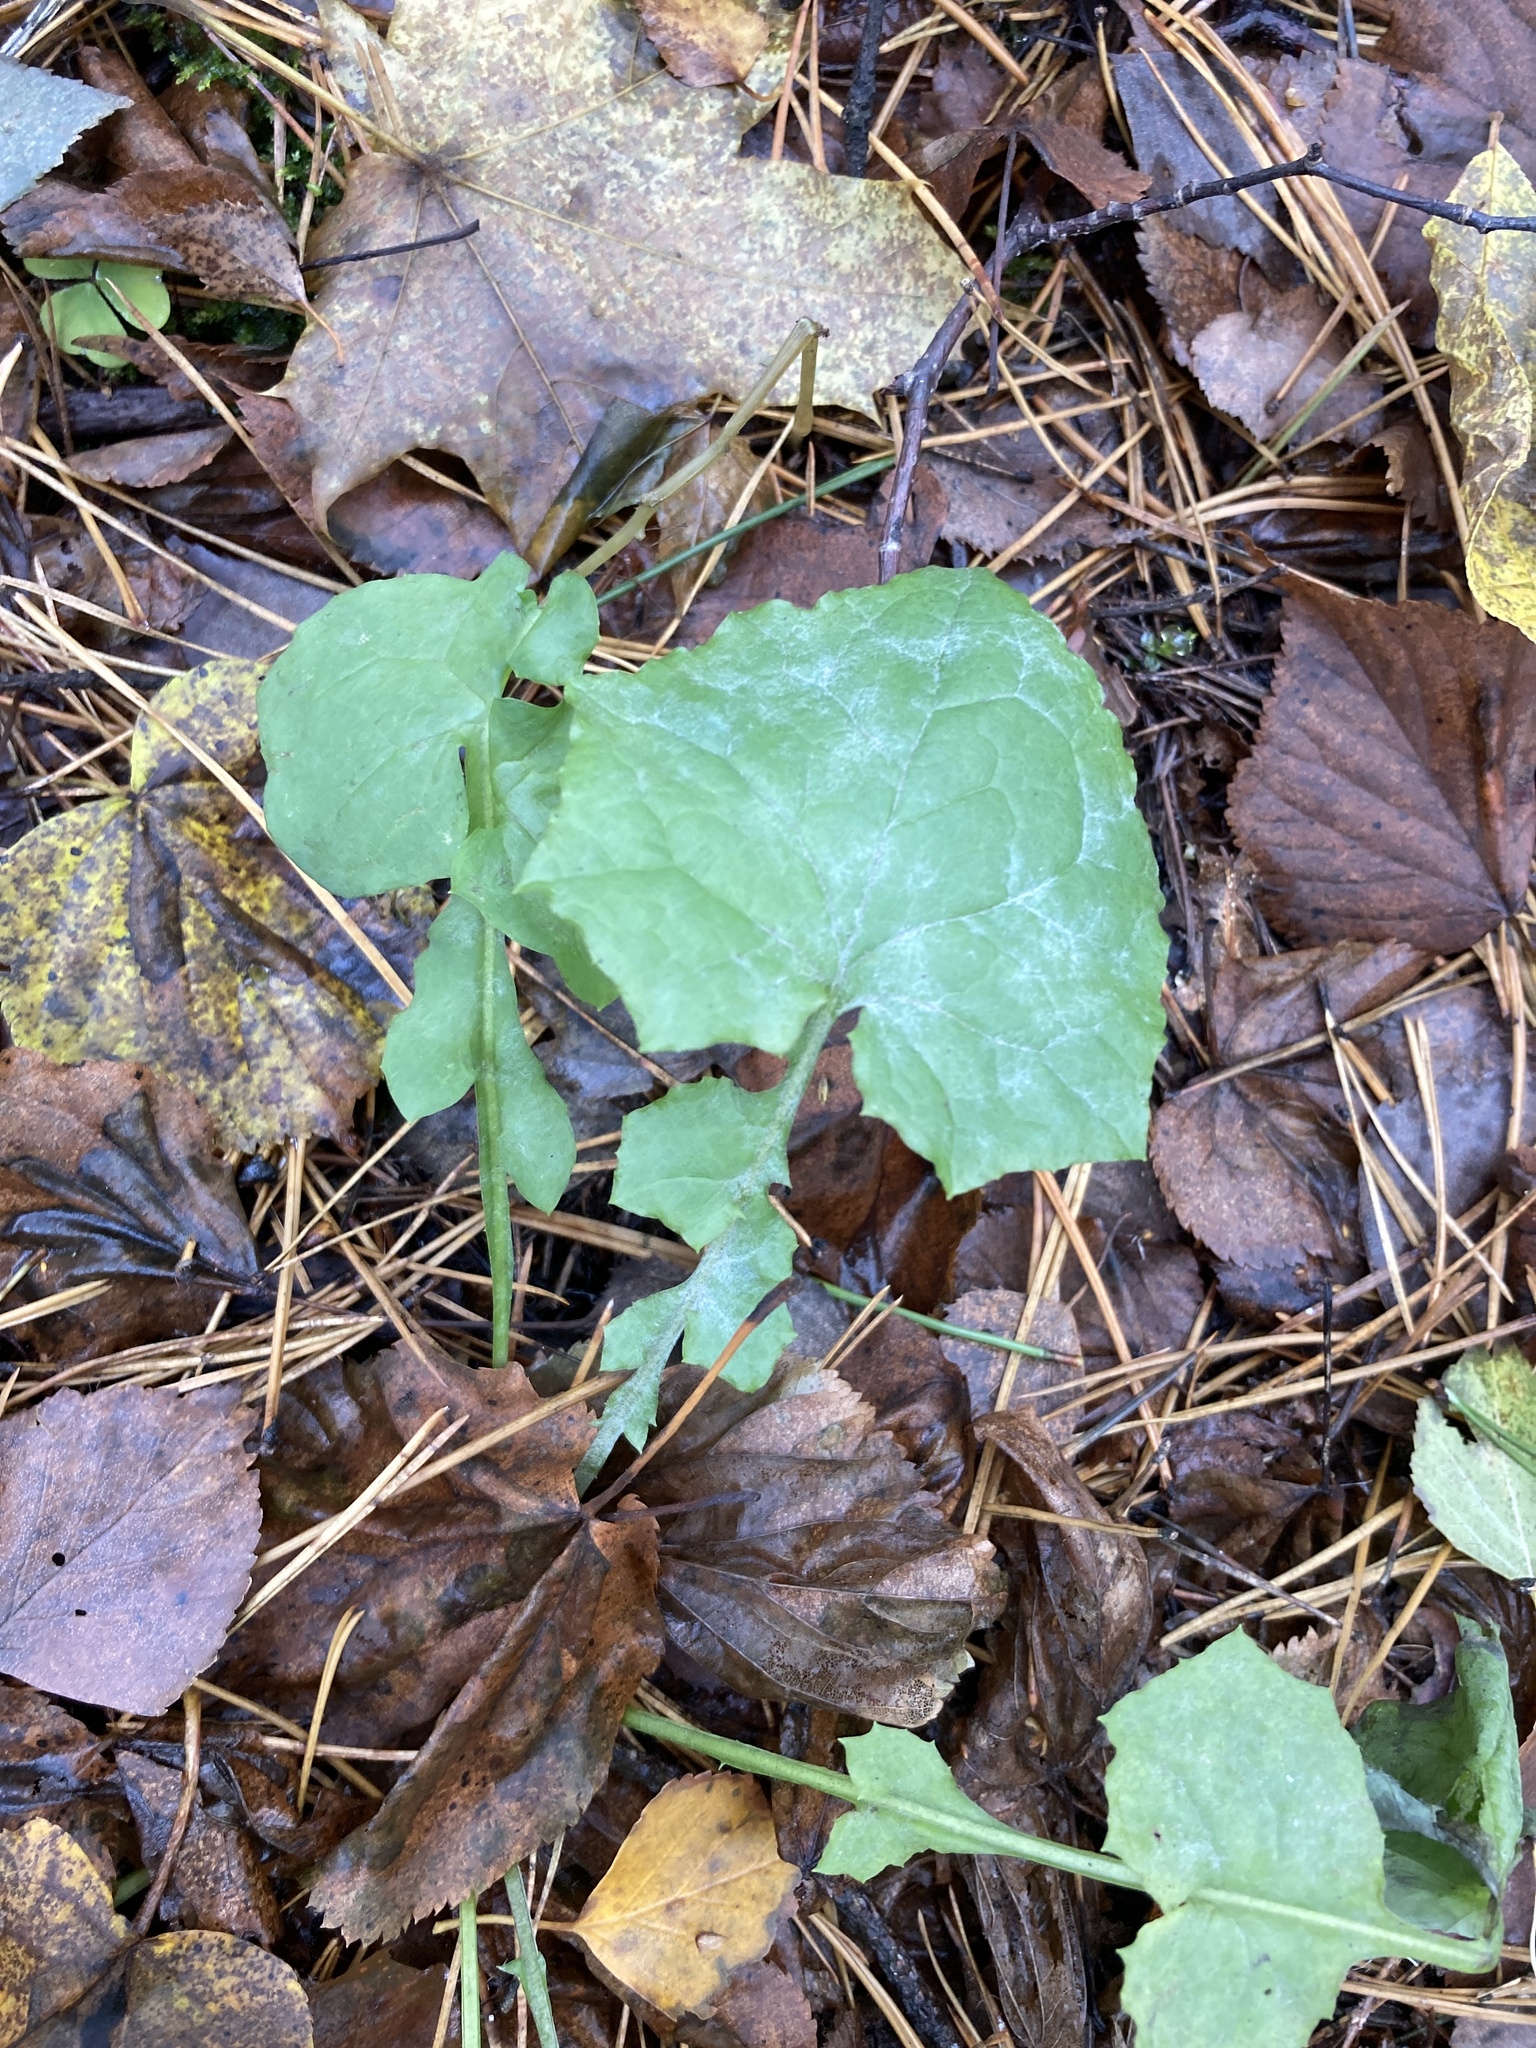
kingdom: Plantae
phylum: Tracheophyta
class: Magnoliopsida
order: Asterales
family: Asteraceae
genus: Mycelis
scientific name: Mycelis muralis
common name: Wall lettuce
